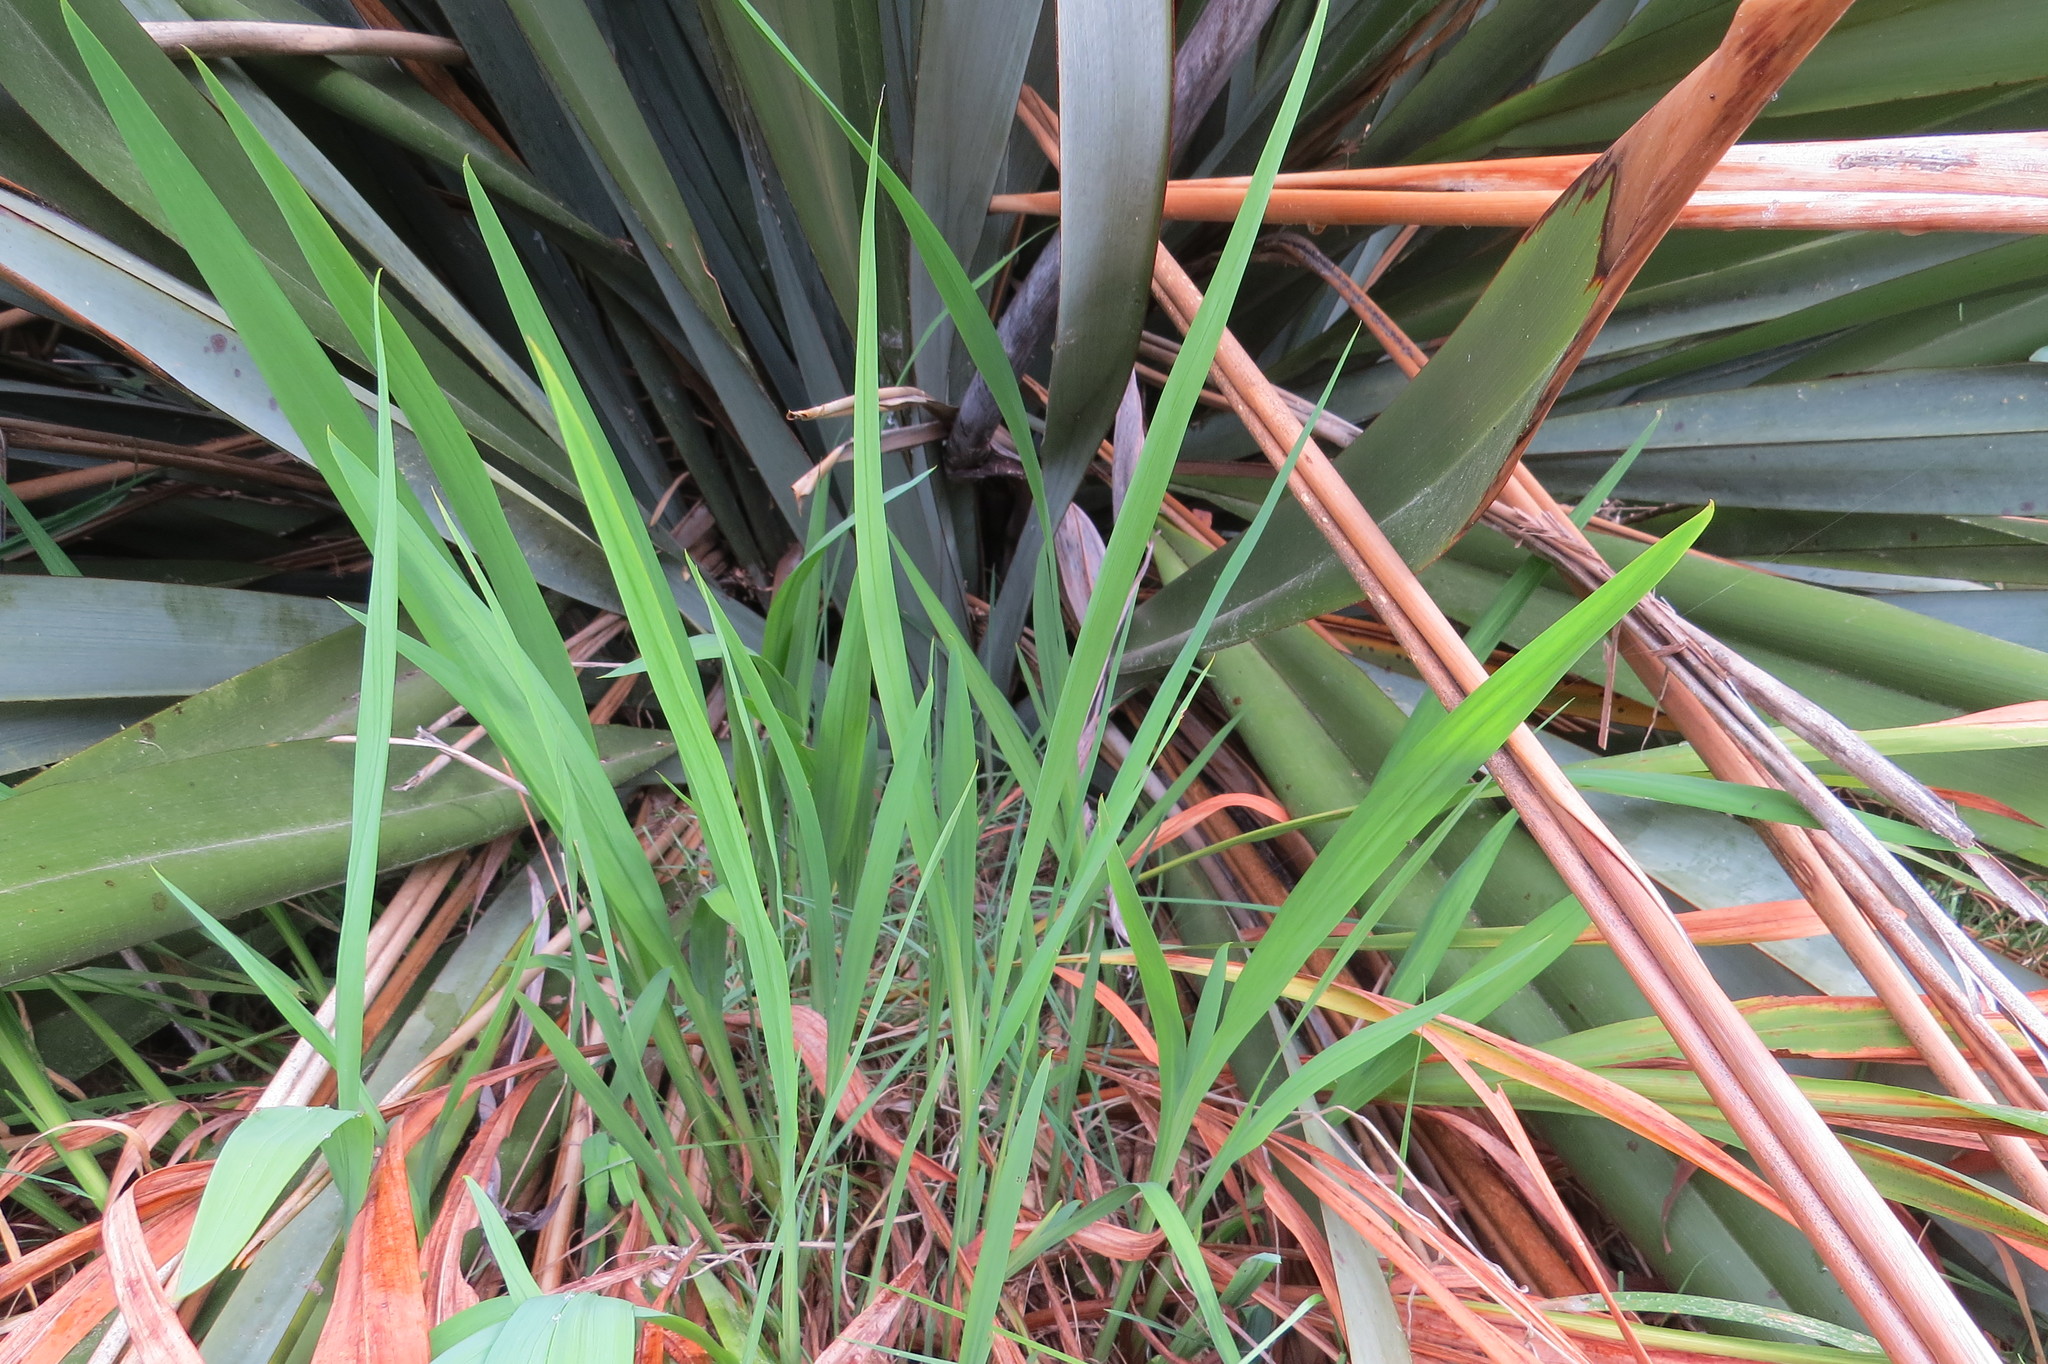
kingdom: Plantae
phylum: Tracheophyta
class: Liliopsida
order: Asparagales
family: Iridaceae
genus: Crocosmia
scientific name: Crocosmia crocosmiiflora
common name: Montbretia
